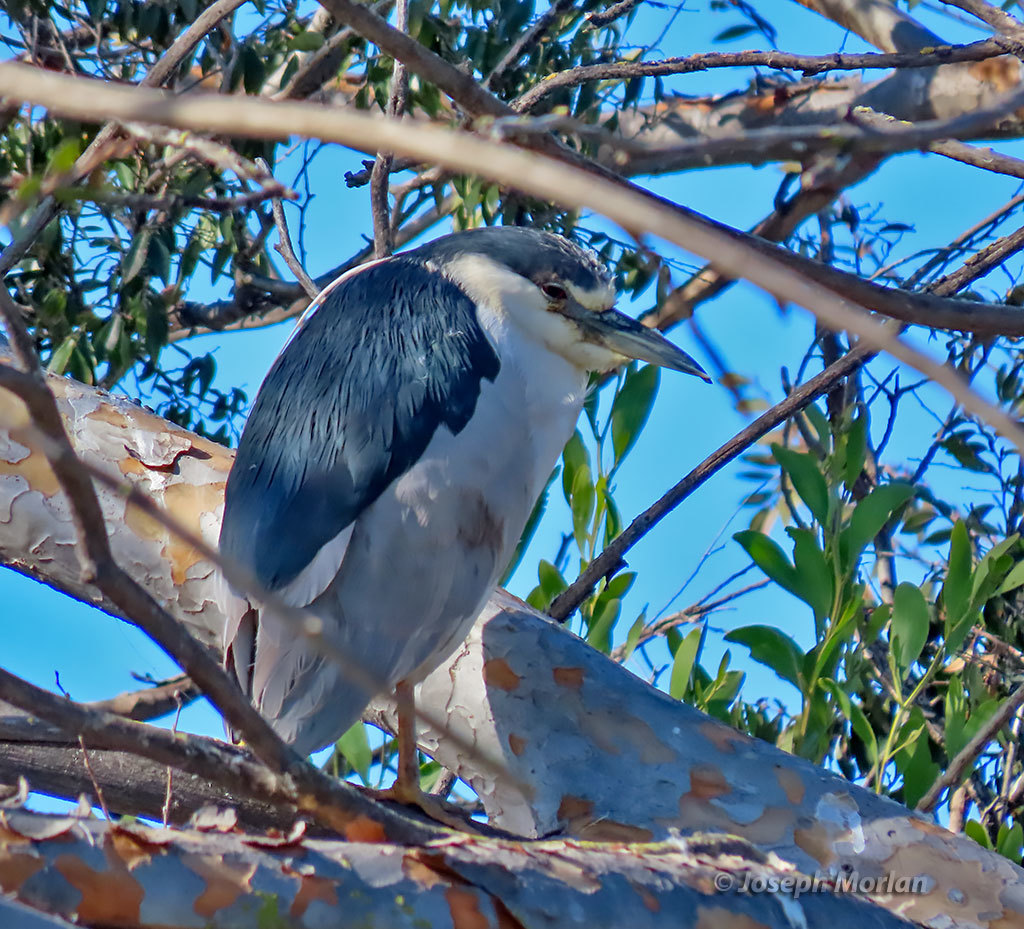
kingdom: Animalia
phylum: Chordata
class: Aves
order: Pelecaniformes
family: Ardeidae
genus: Nycticorax
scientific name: Nycticorax nycticorax
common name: Black-crowned night heron
